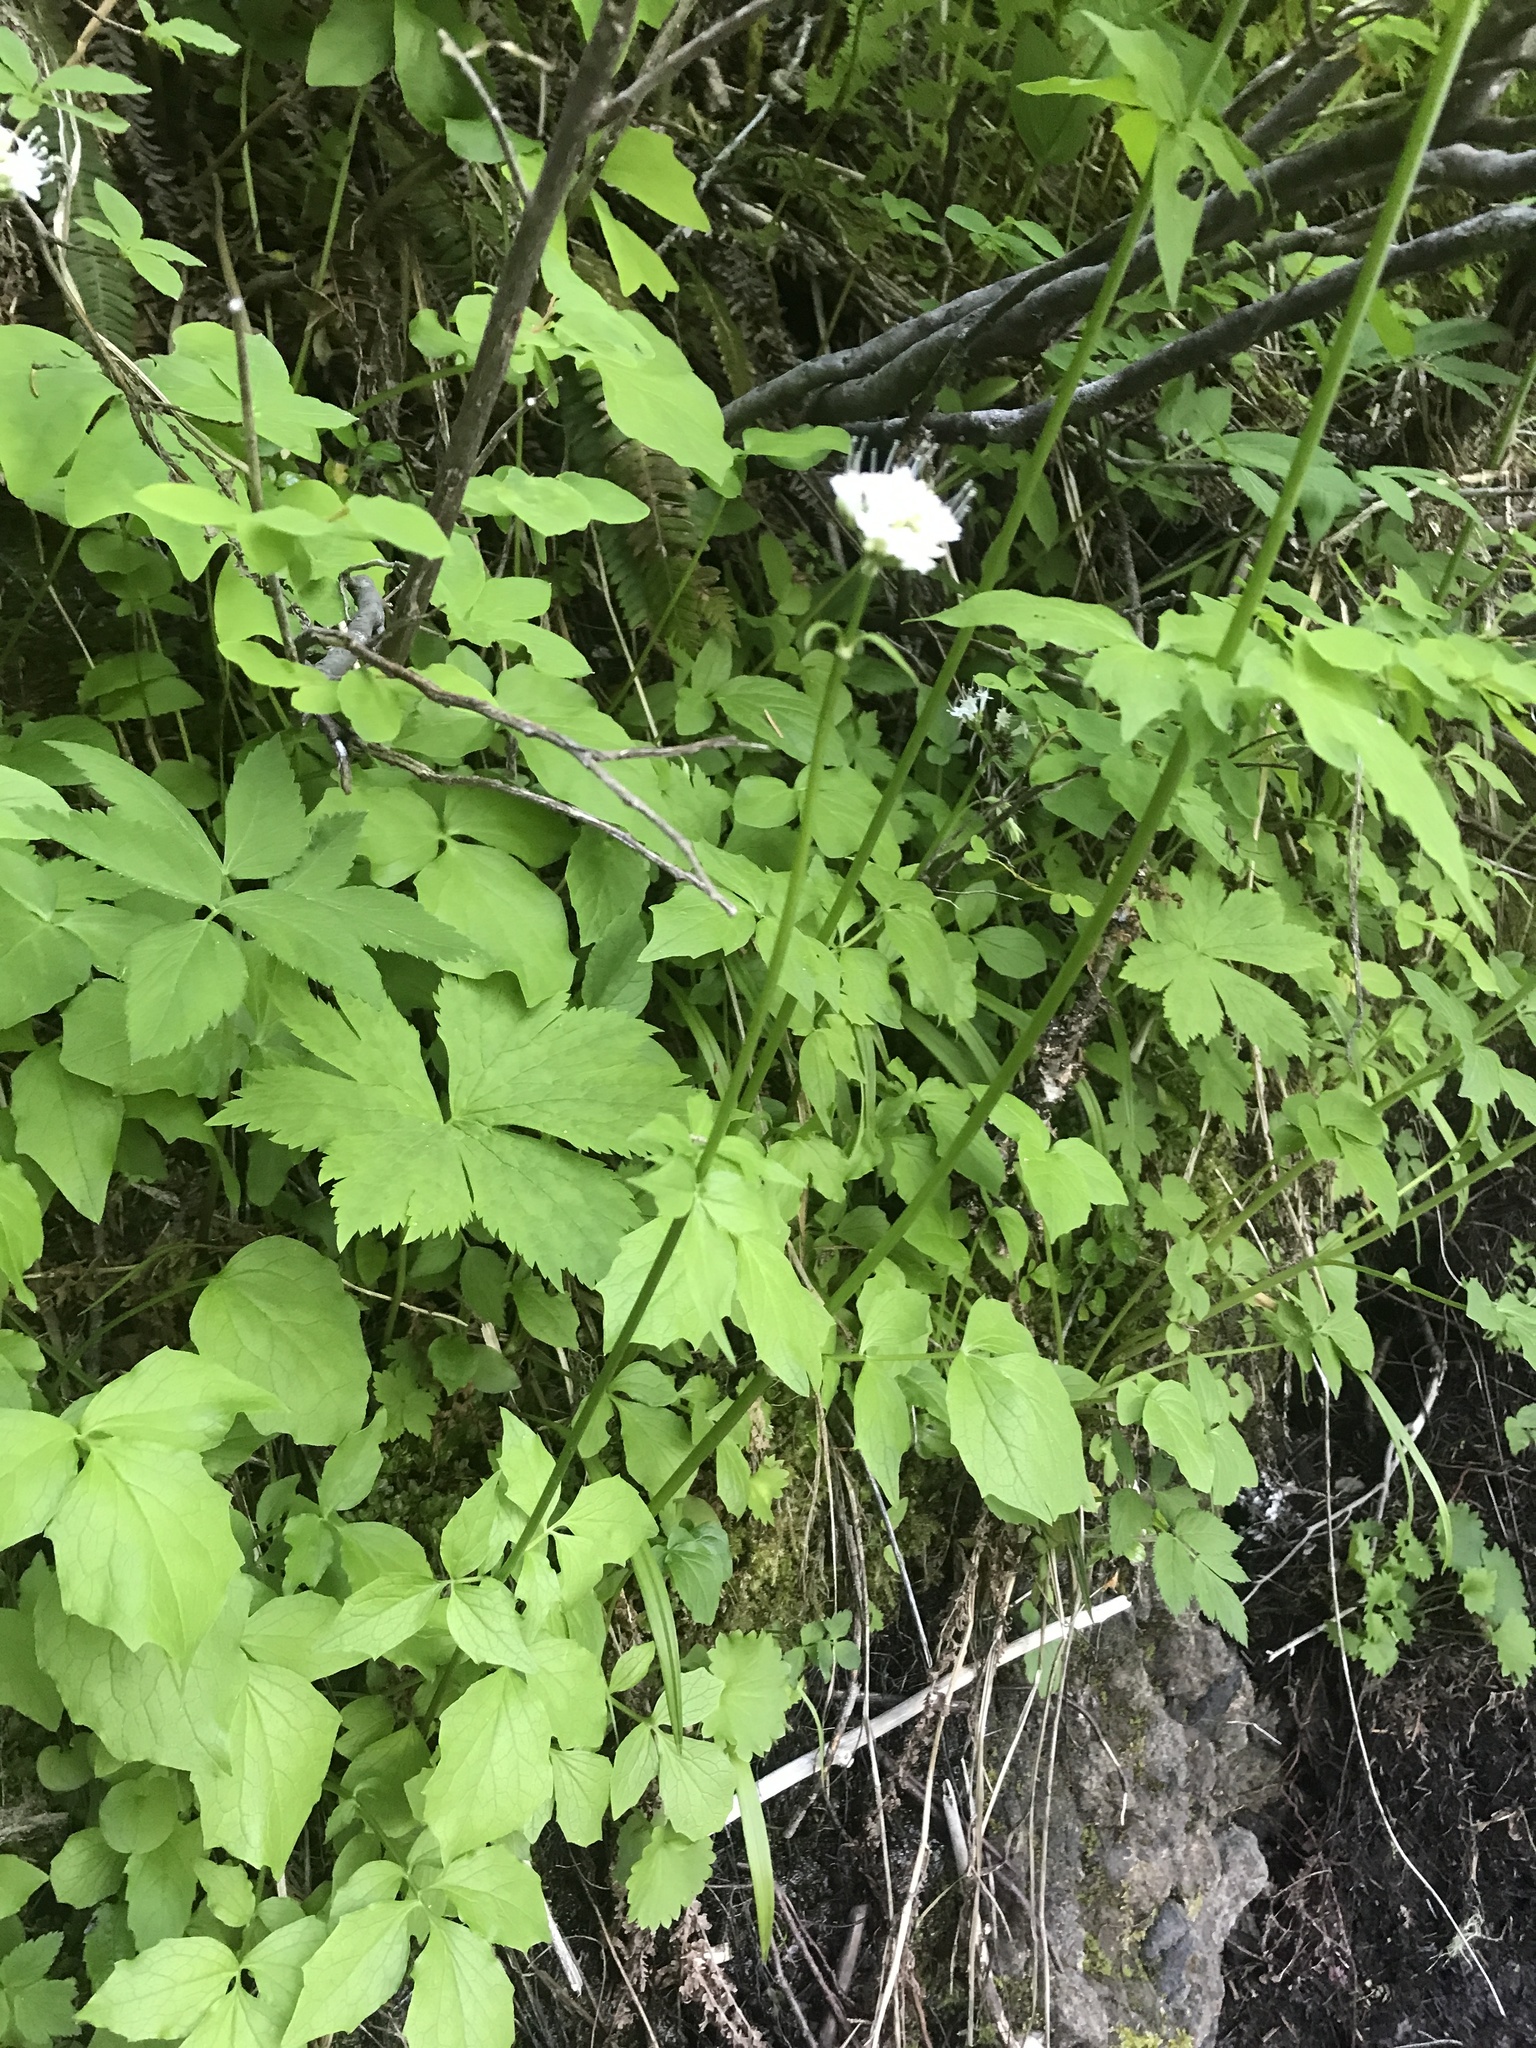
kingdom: Plantae
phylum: Tracheophyta
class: Magnoliopsida
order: Dipsacales
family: Caprifoliaceae
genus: Valeriana
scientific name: Valeriana sitchensis
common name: Pacific valerian
